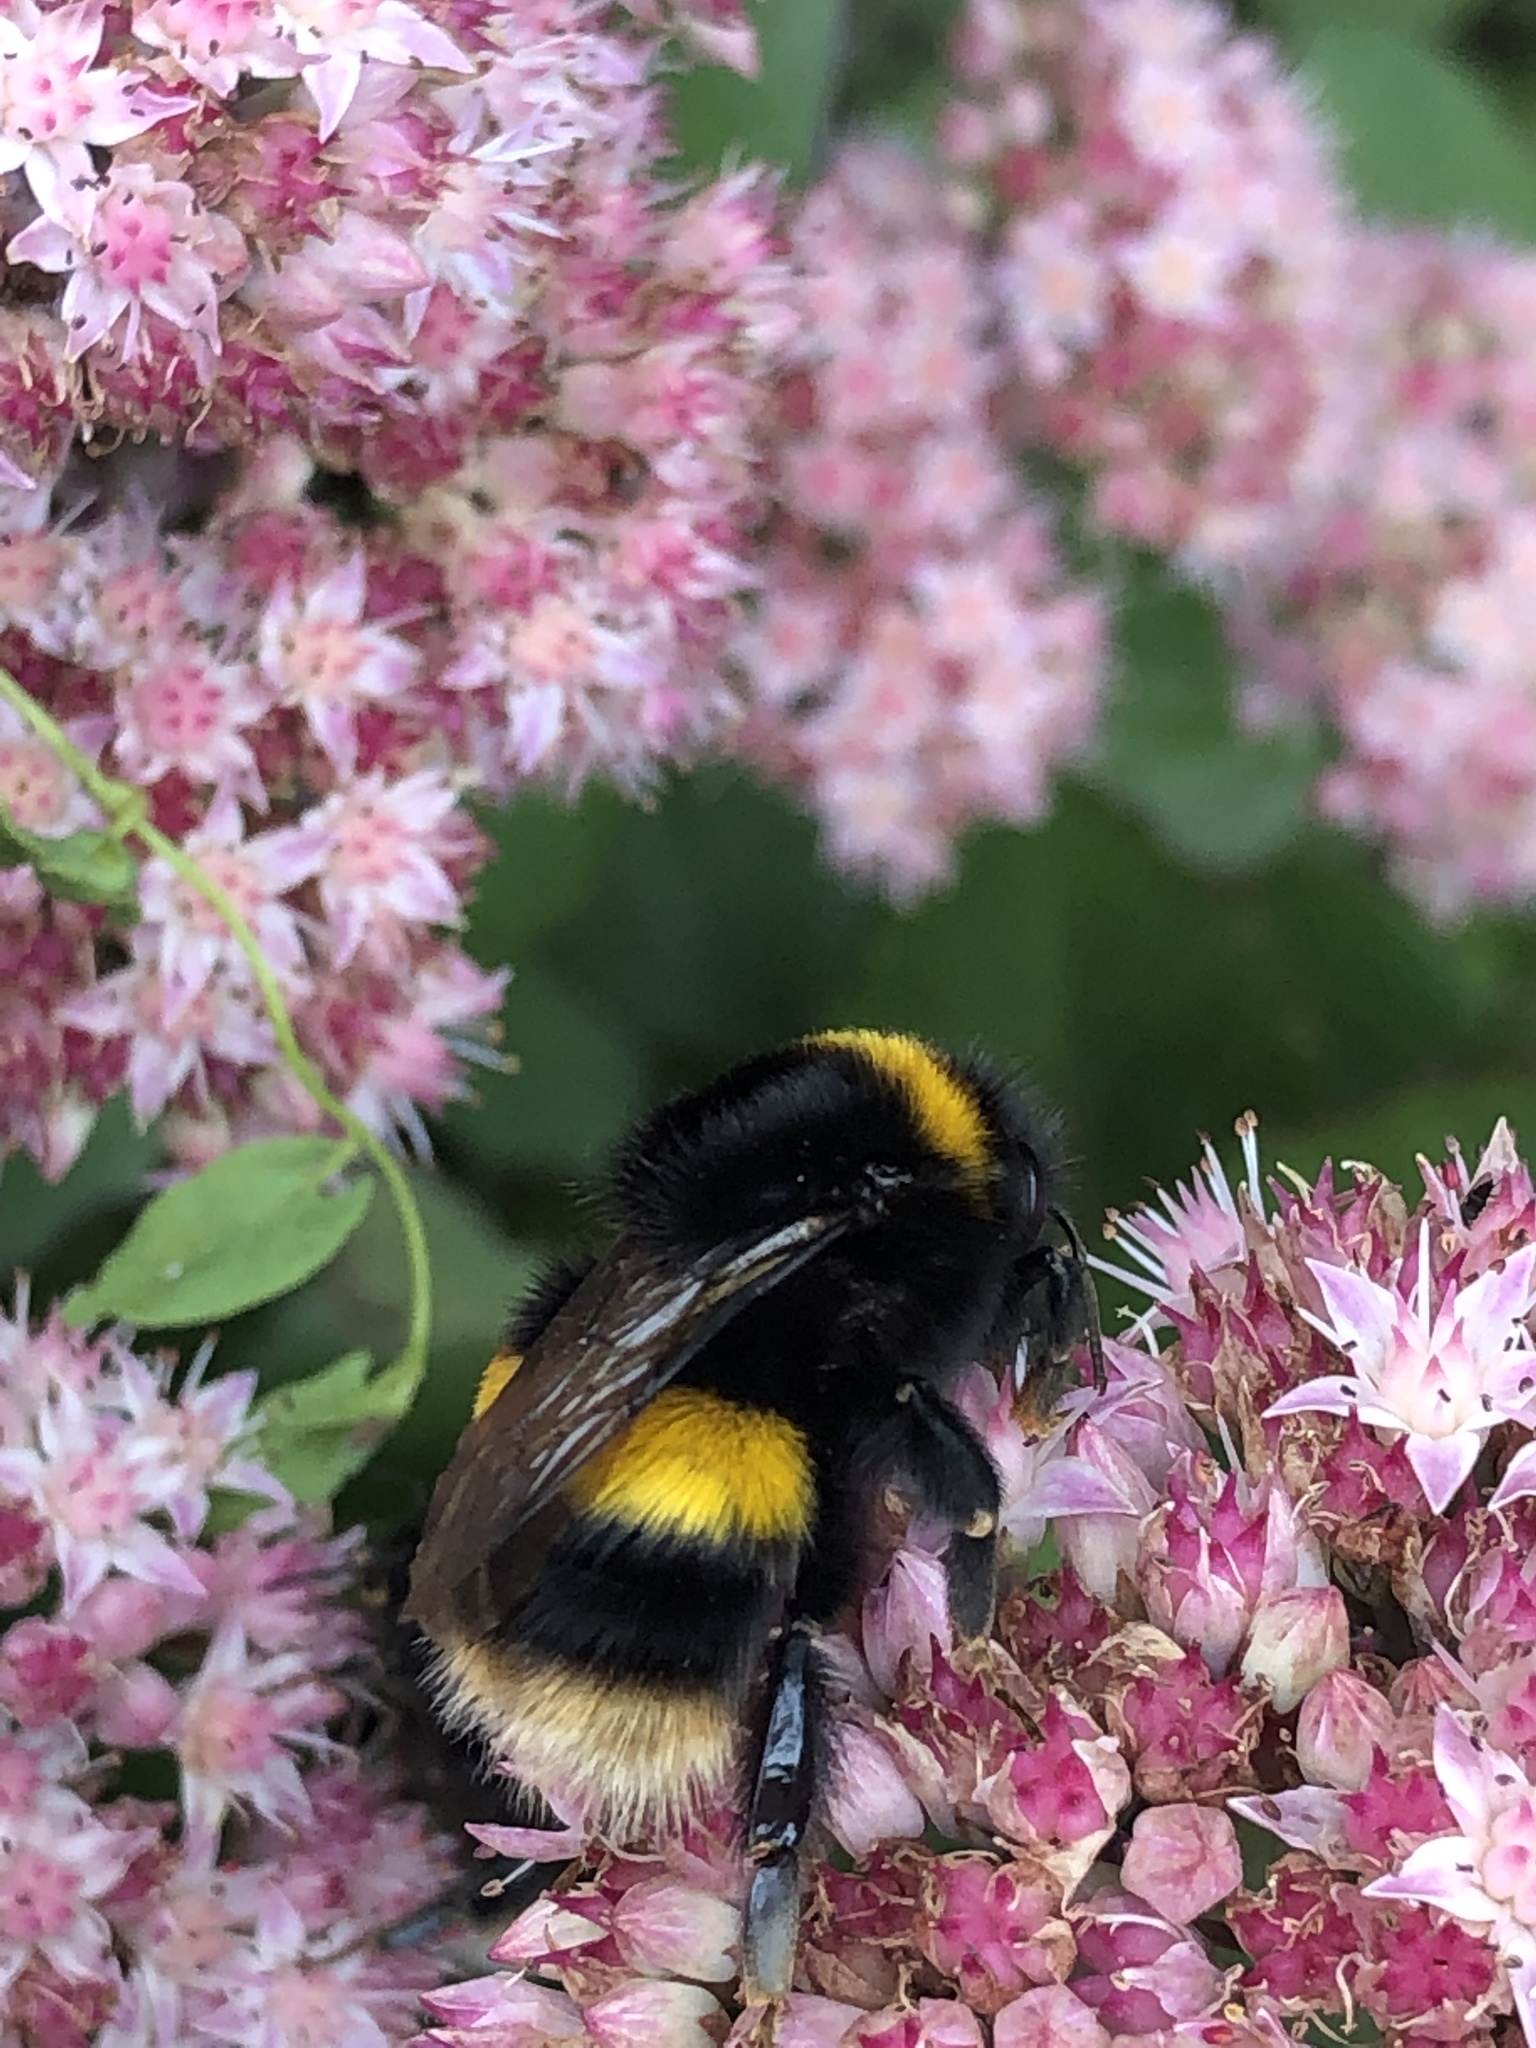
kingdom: Animalia
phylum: Arthropoda
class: Insecta
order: Hymenoptera
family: Apidae
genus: Bombus
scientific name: Bombus terrestris
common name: Buff-tailed bumblebee
